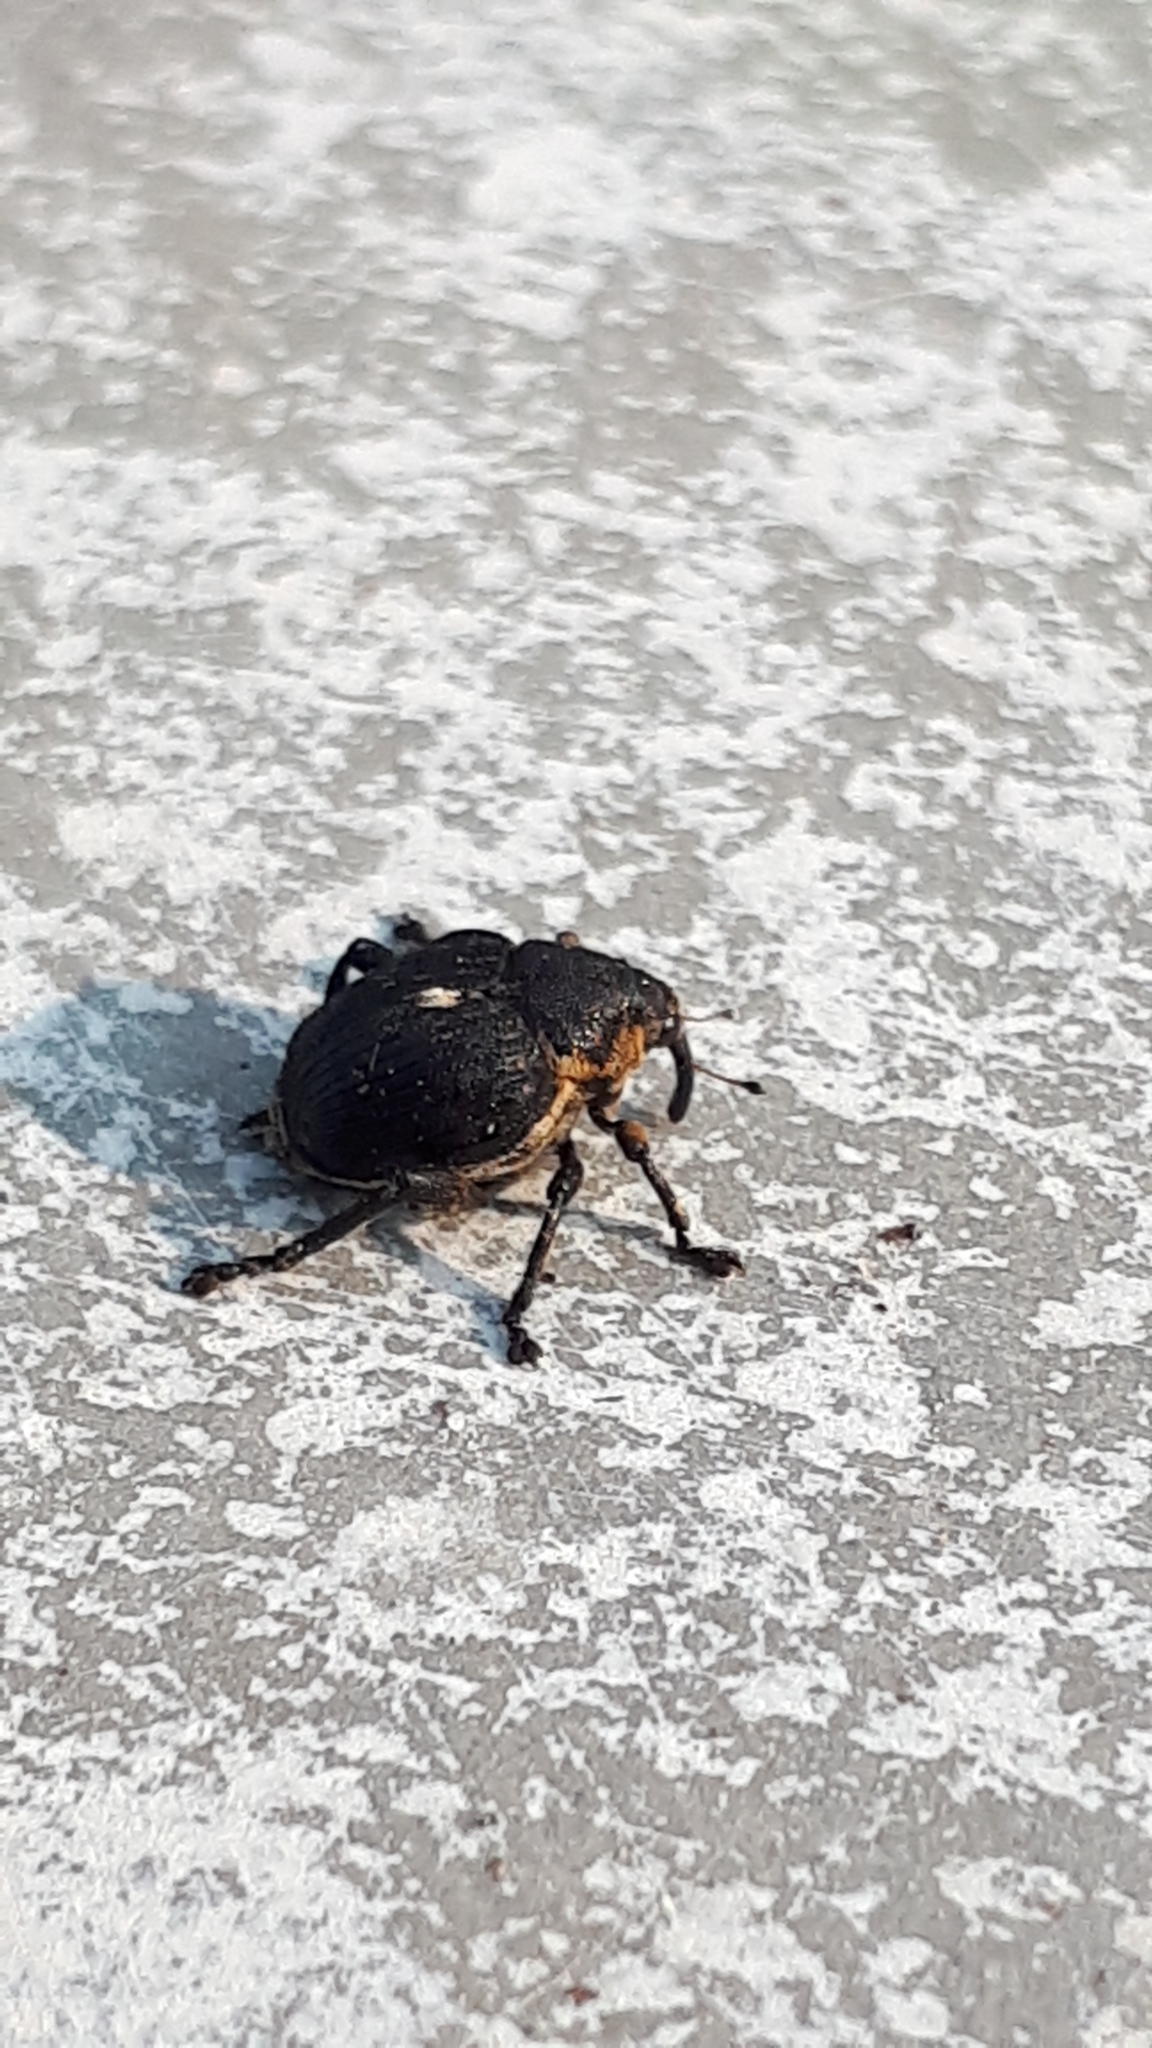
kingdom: Animalia
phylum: Arthropoda
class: Insecta
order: Coleoptera
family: Curculionidae
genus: Mononychus
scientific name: Mononychus punctumalbum
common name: Iris weevil
